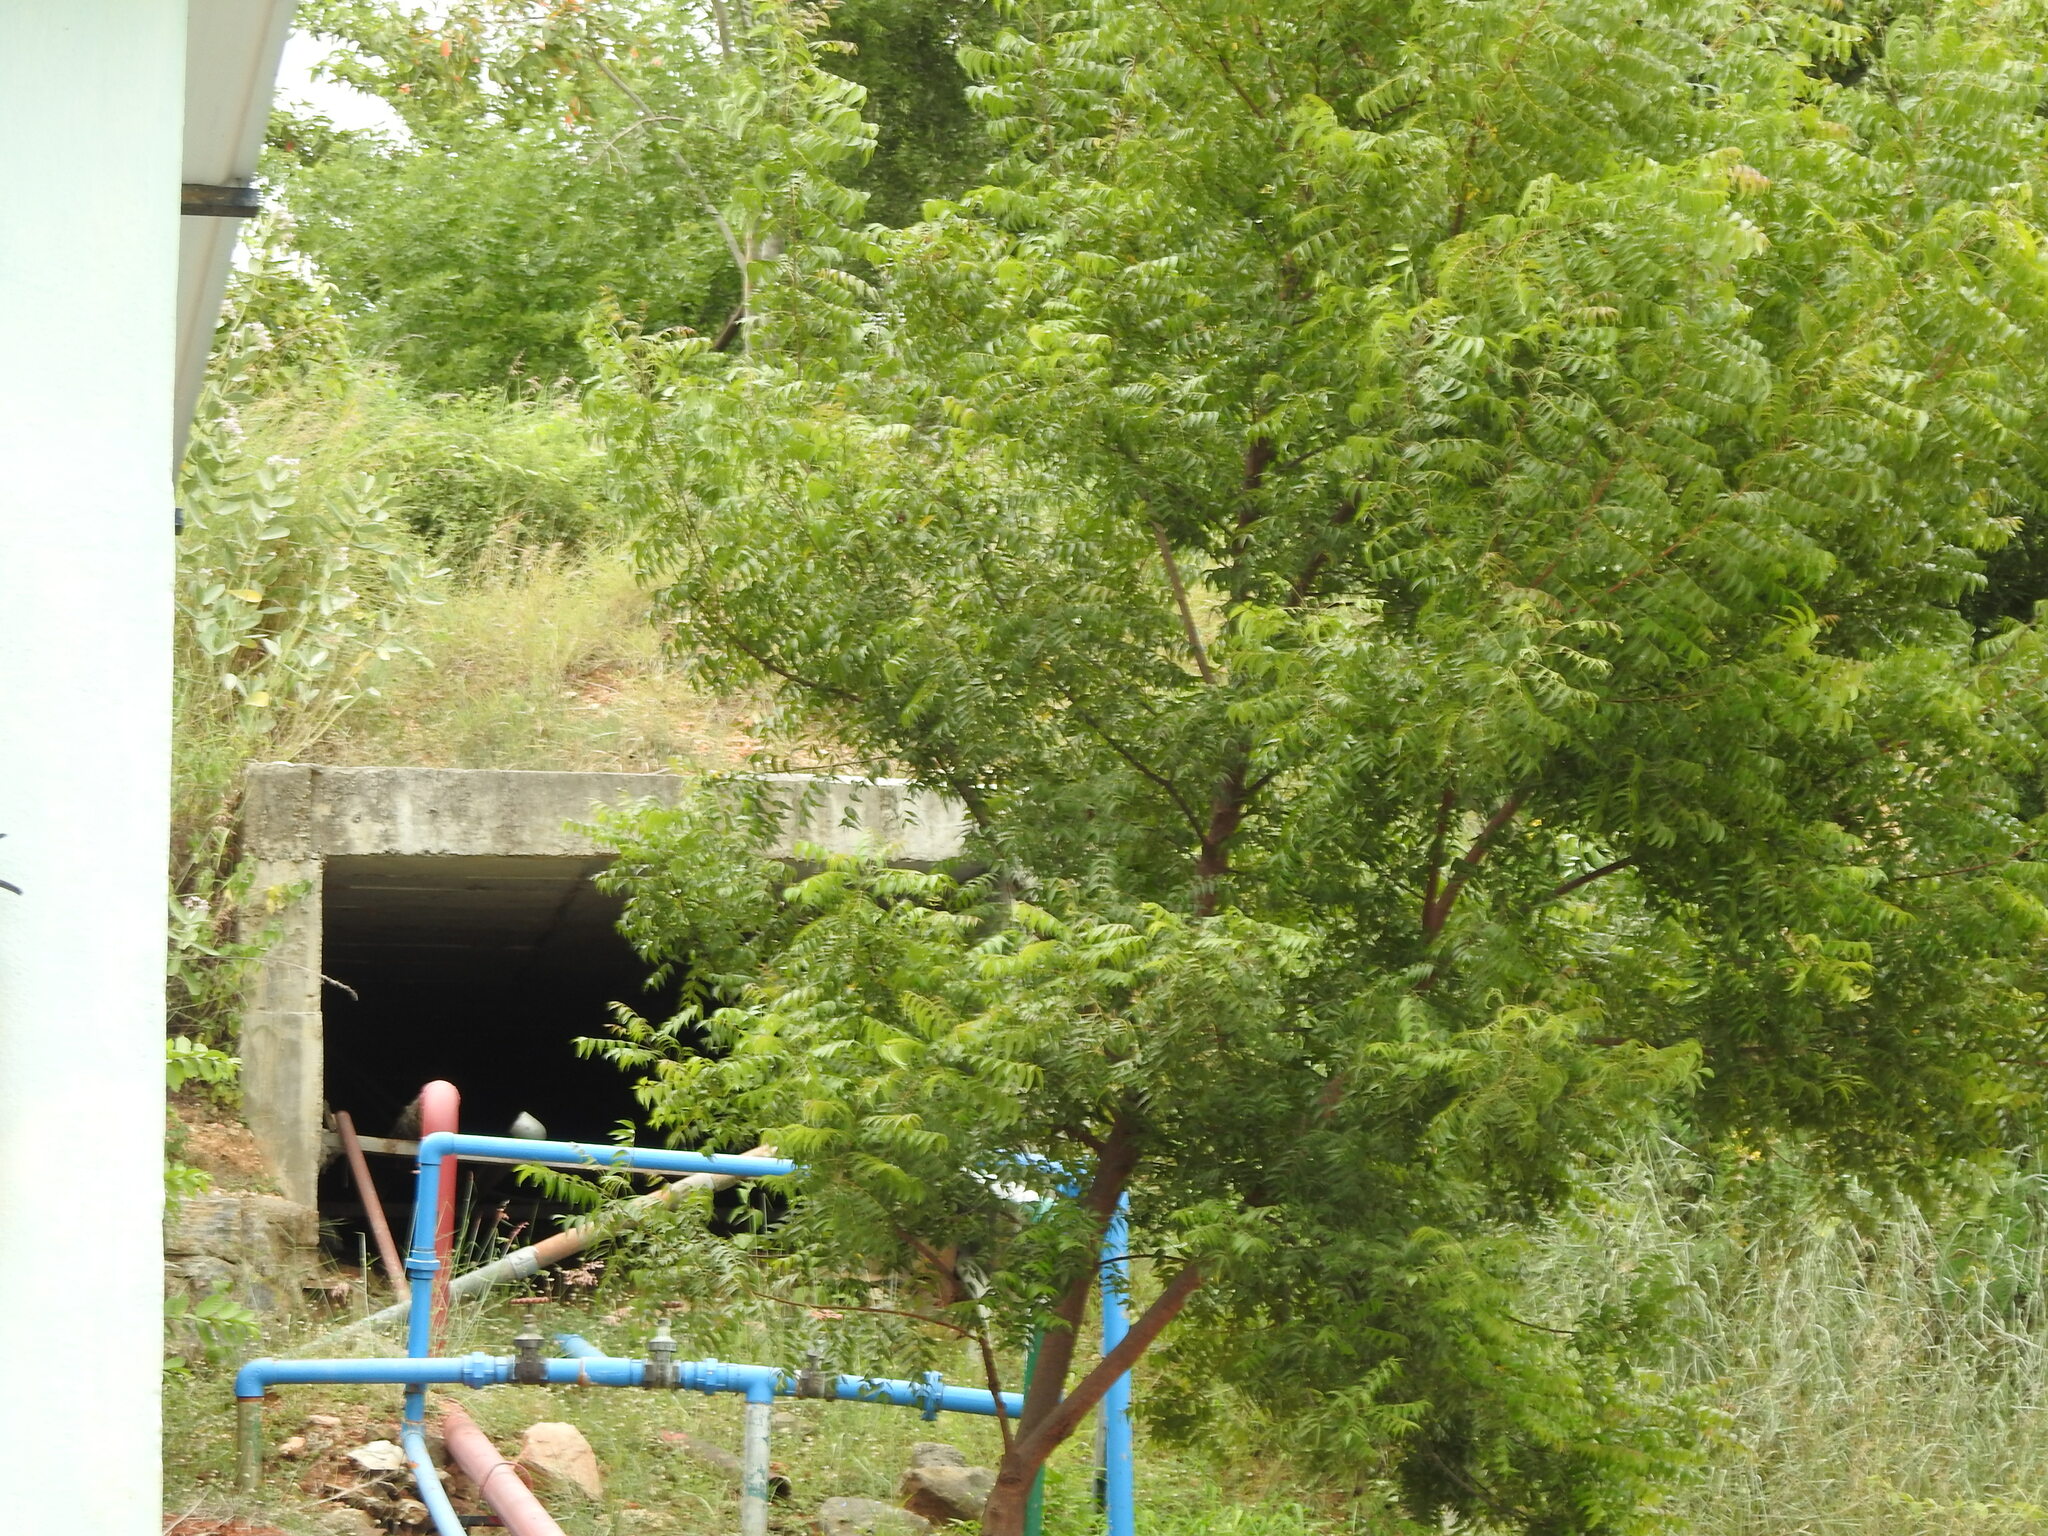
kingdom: Plantae
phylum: Tracheophyta
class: Magnoliopsida
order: Sapindales
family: Meliaceae
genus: Azadirachta
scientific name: Azadirachta indica
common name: Neem
